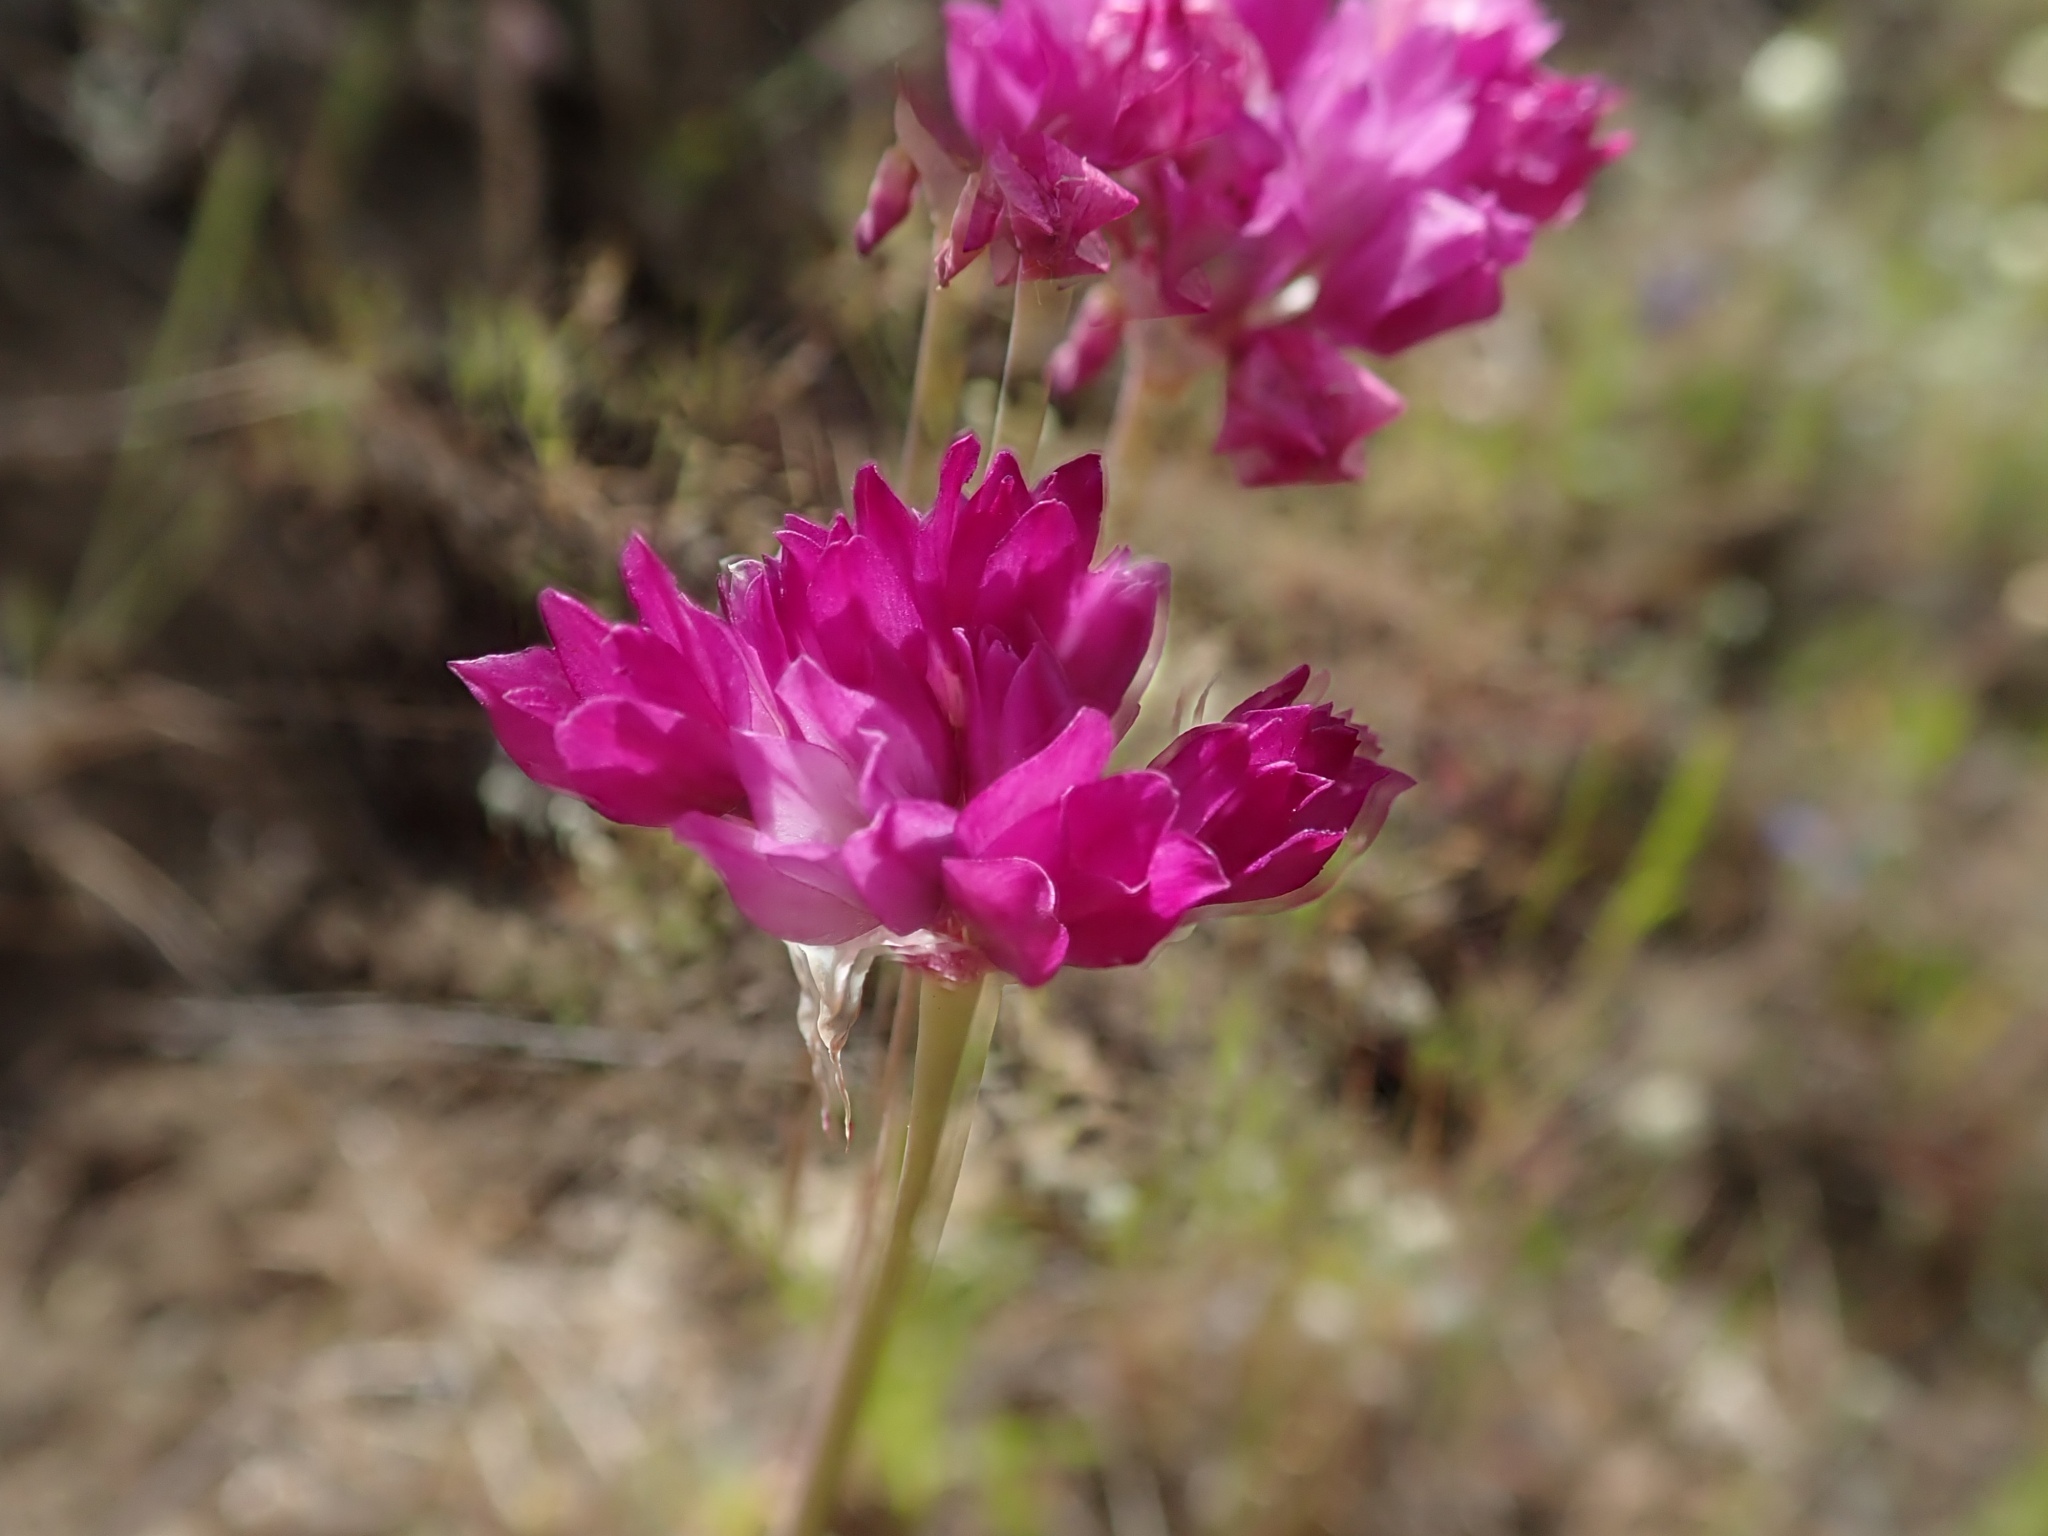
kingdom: Plantae
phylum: Tracheophyta
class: Liliopsida
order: Asparagales
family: Amaryllidaceae
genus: Allium
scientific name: Allium serra
